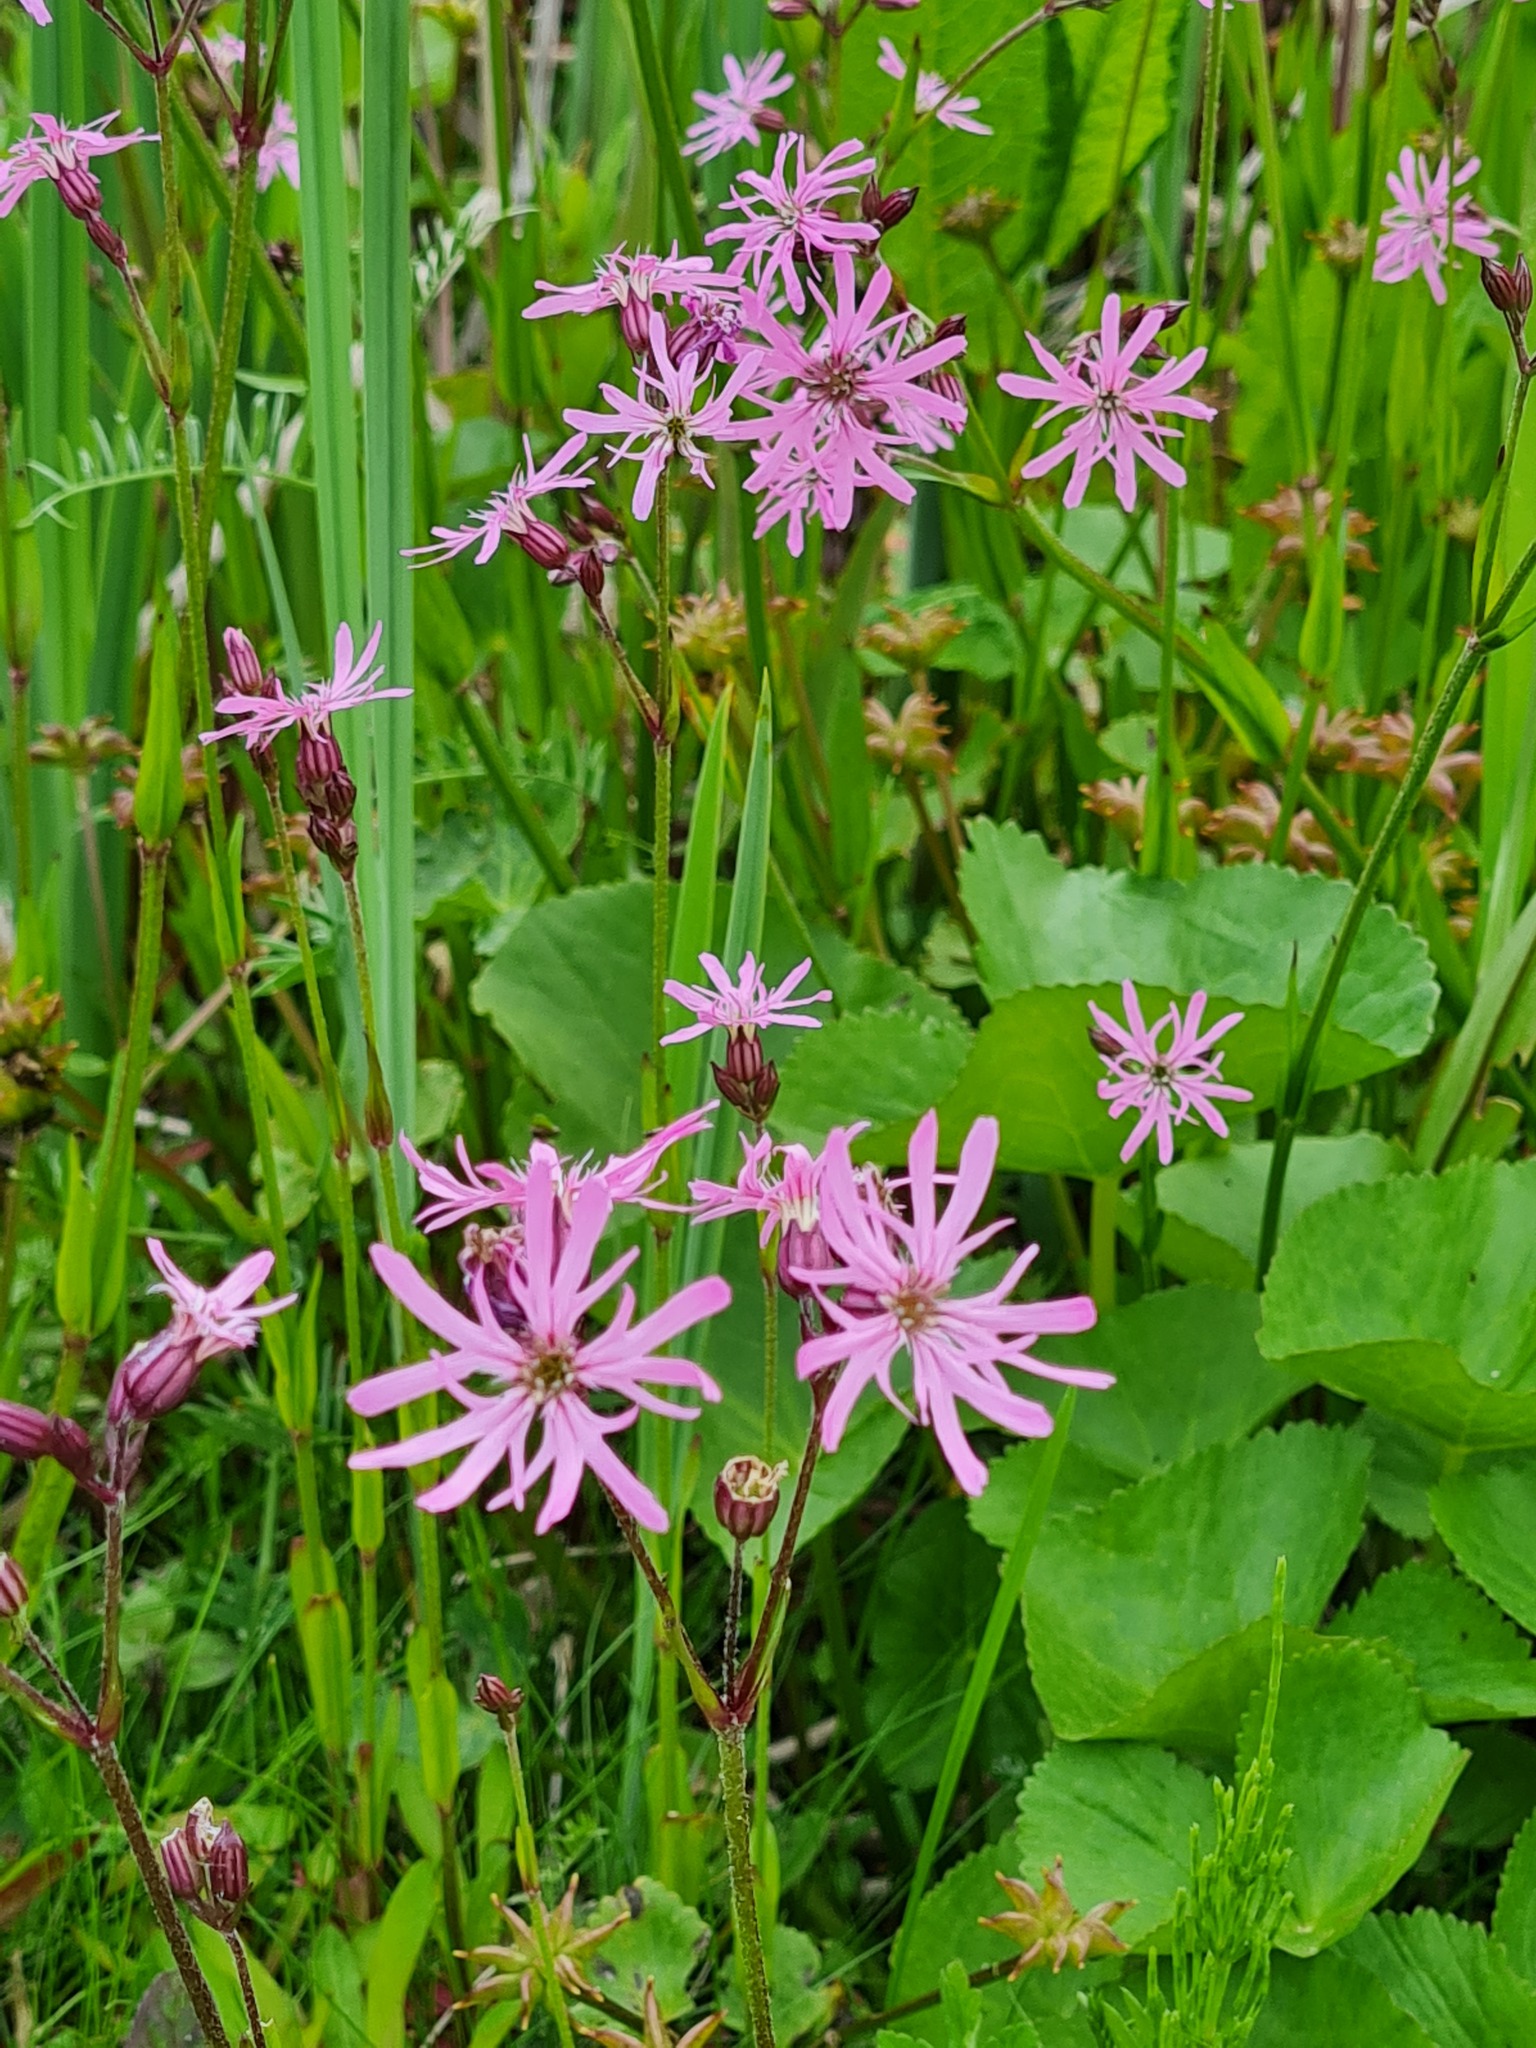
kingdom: Plantae
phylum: Tracheophyta
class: Magnoliopsida
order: Caryophyllales
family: Caryophyllaceae
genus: Silene
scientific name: Silene flos-cuculi
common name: Ragged-robin
